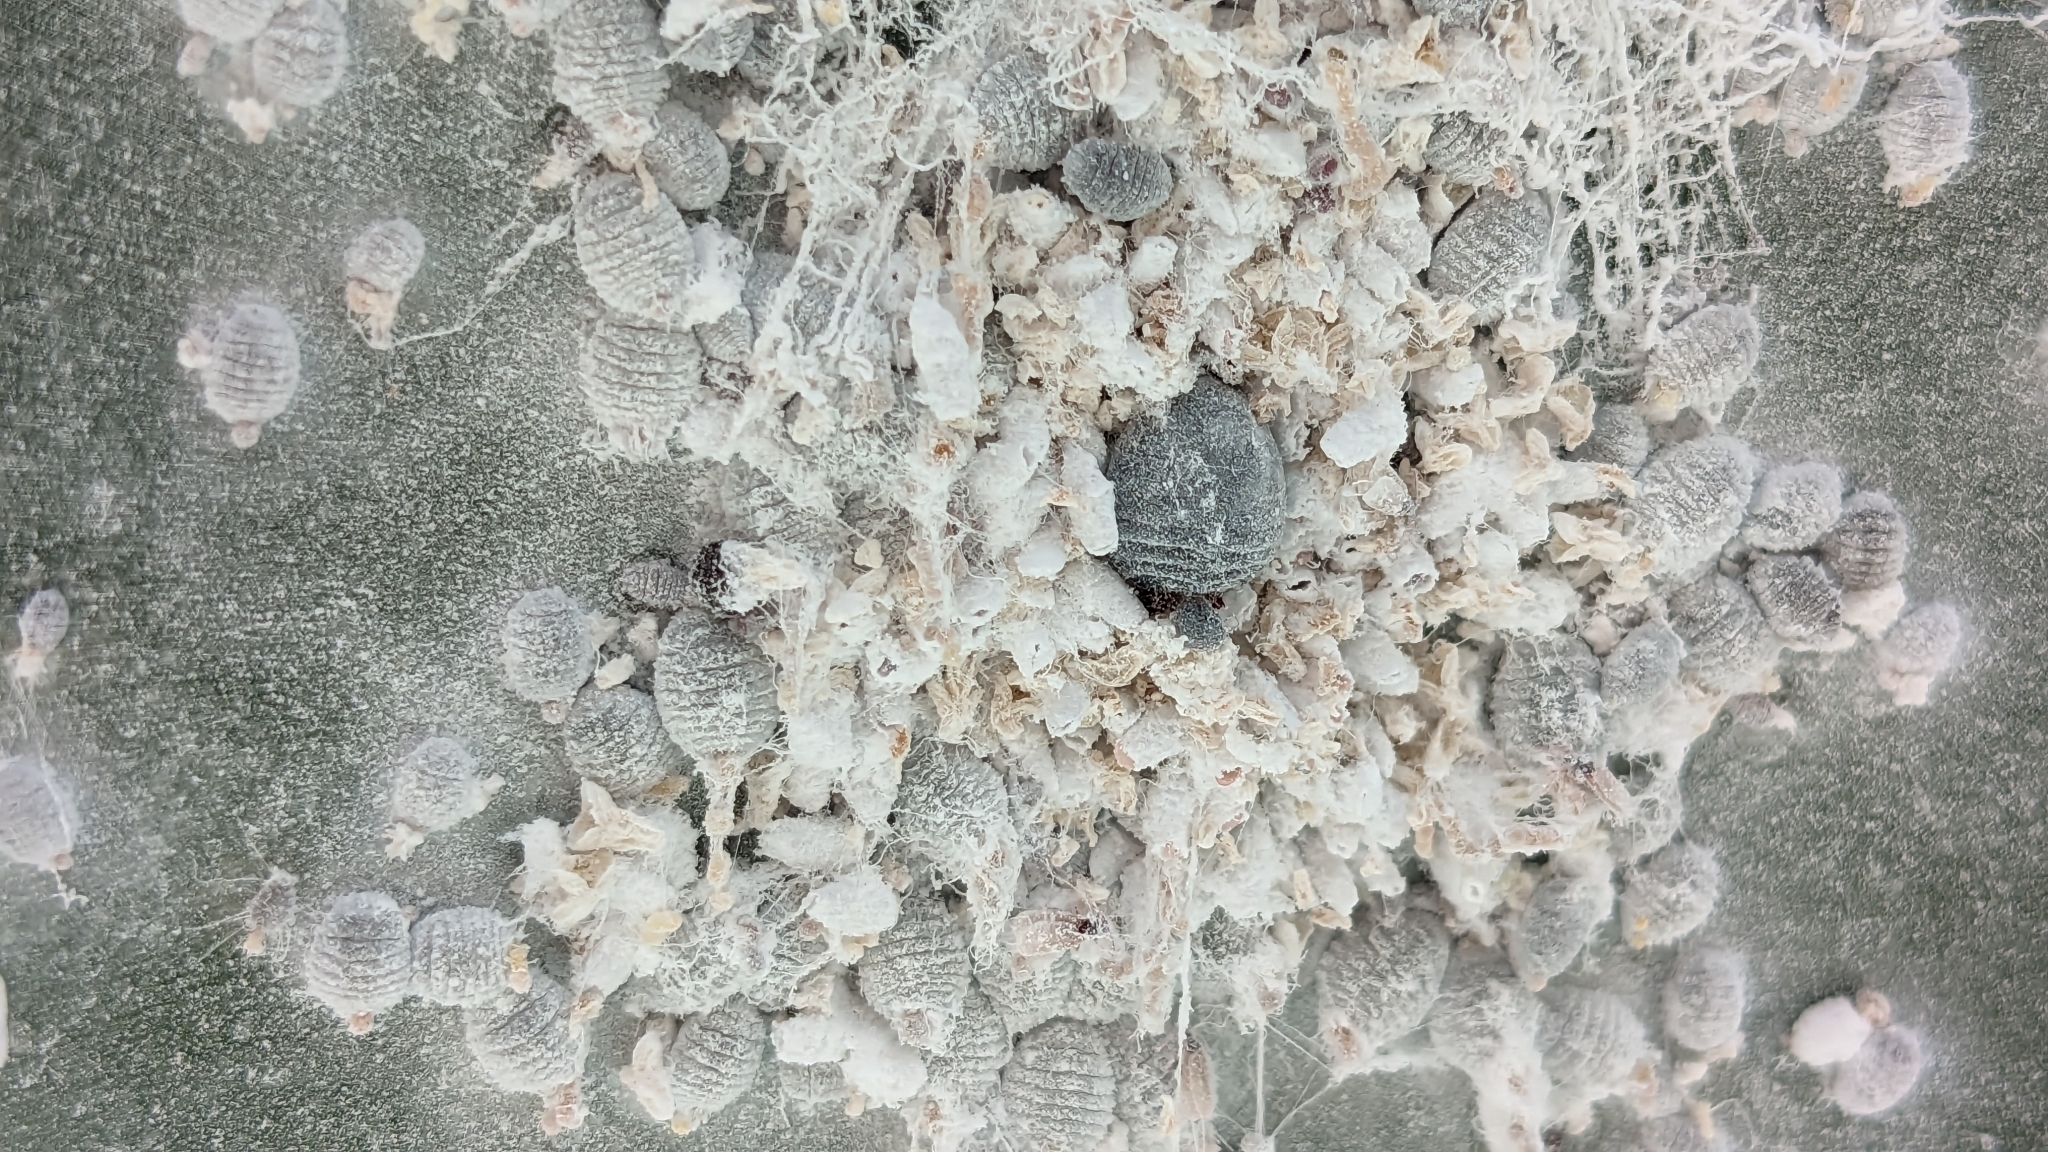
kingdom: Animalia
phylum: Arthropoda
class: Insecta
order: Hemiptera
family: Dactylopiidae
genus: Dactylopius
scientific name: Dactylopius coccus
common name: Cochineal
